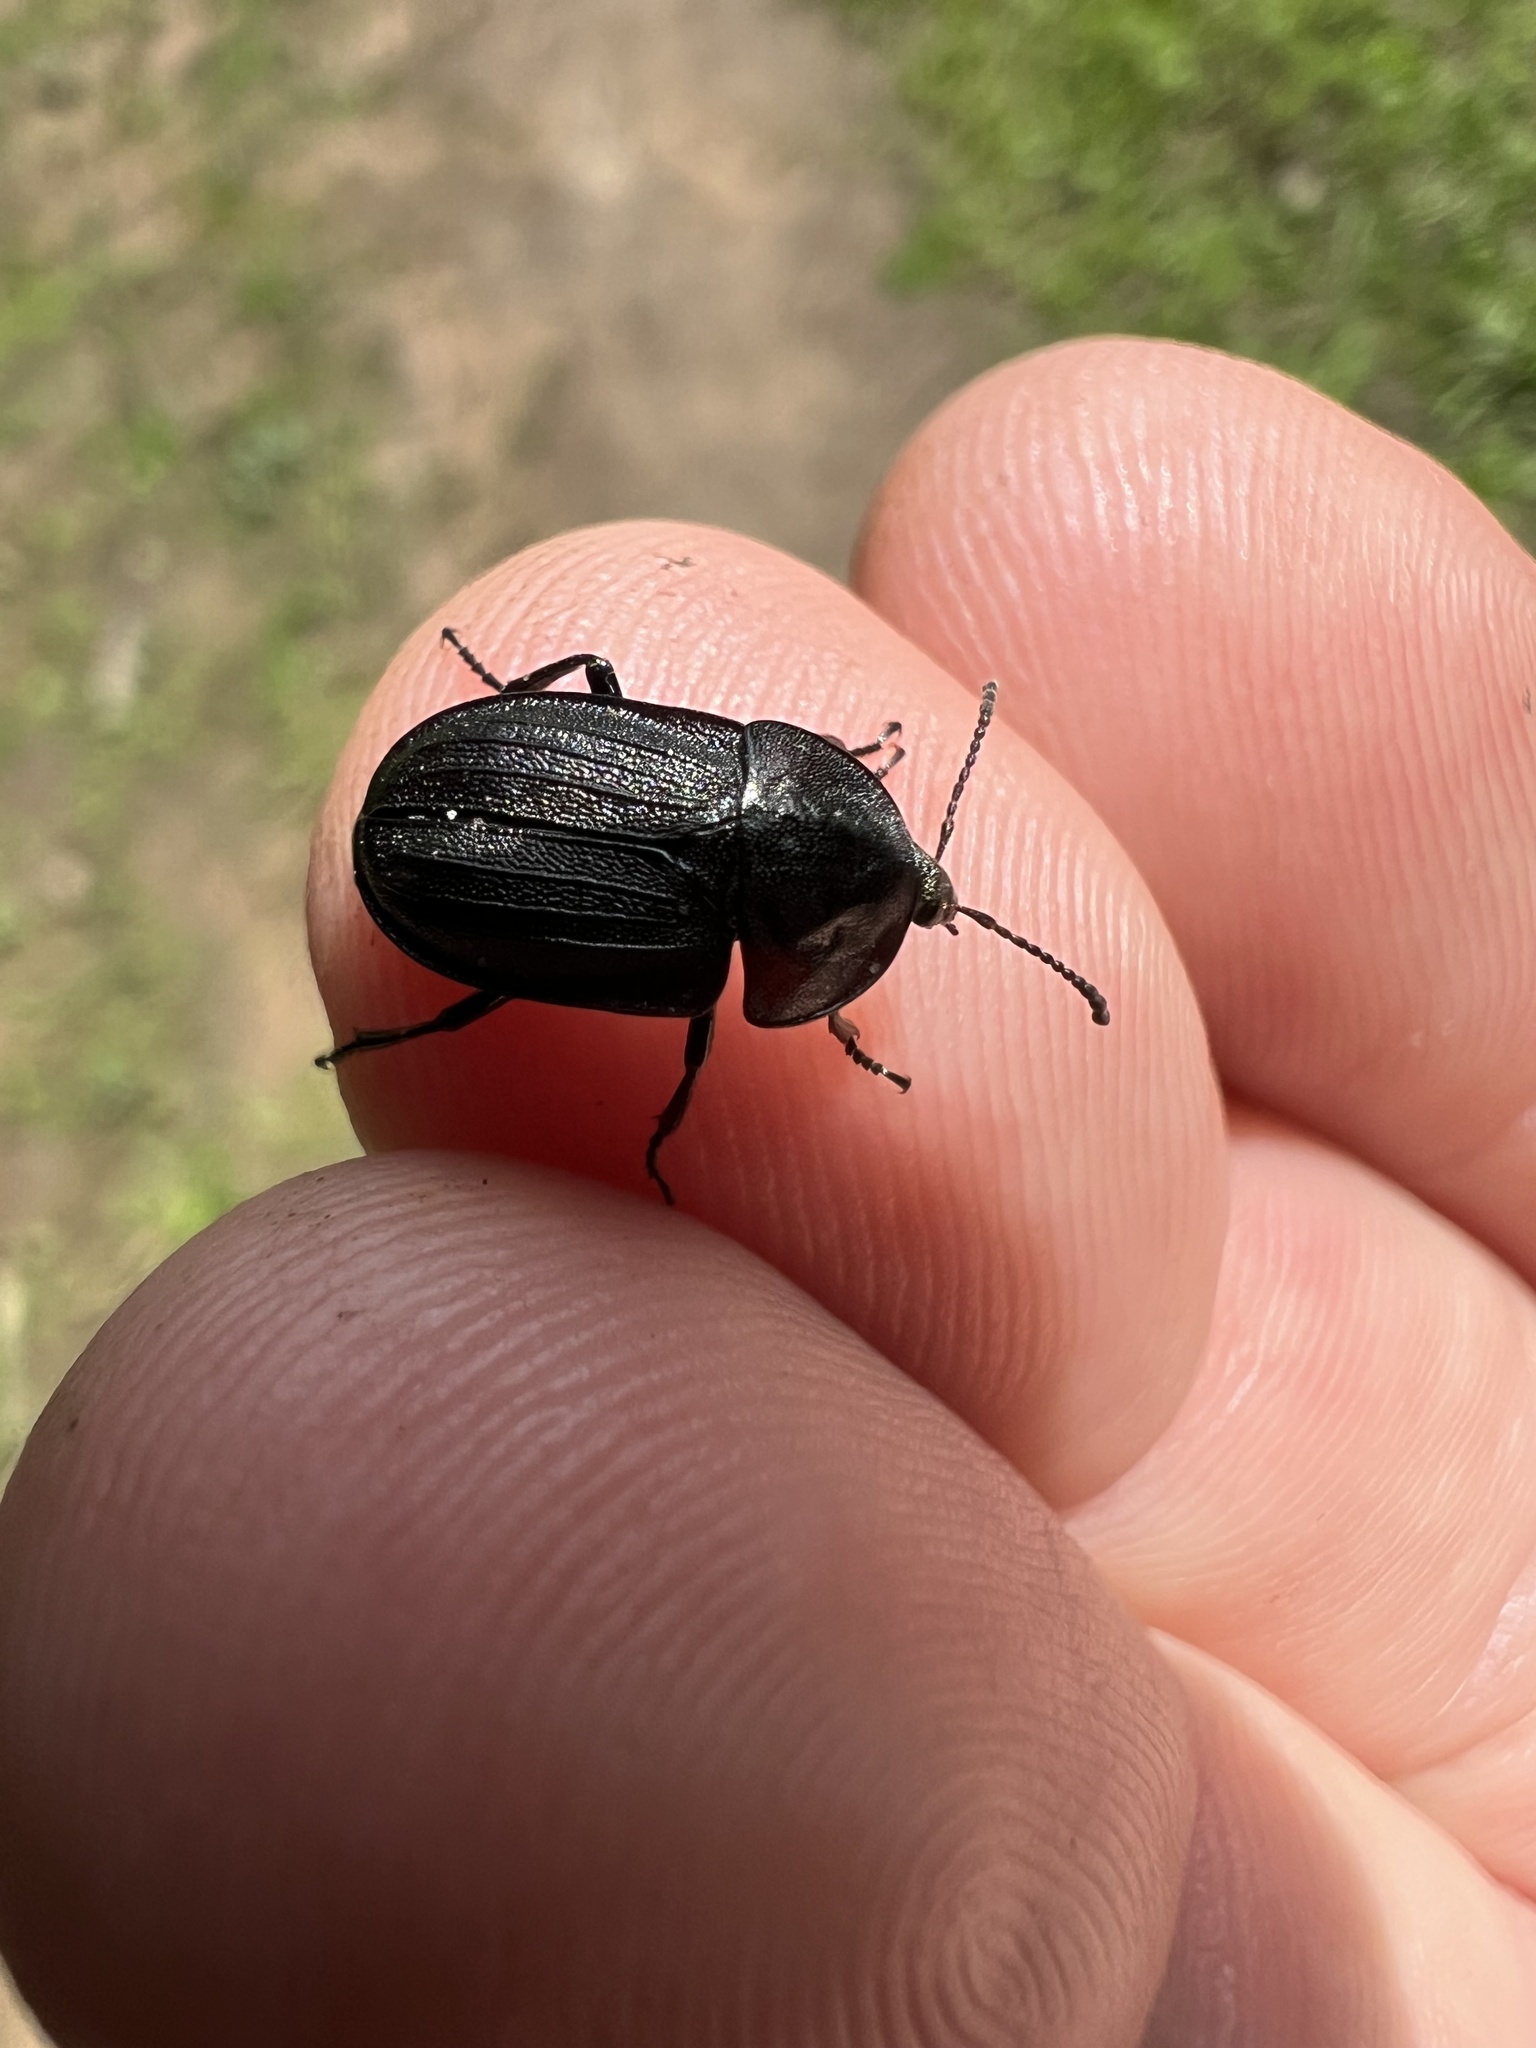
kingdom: Animalia
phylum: Arthropoda
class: Insecta
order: Coleoptera
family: Staphylinidae
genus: Silpha
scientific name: Silpha atrata
